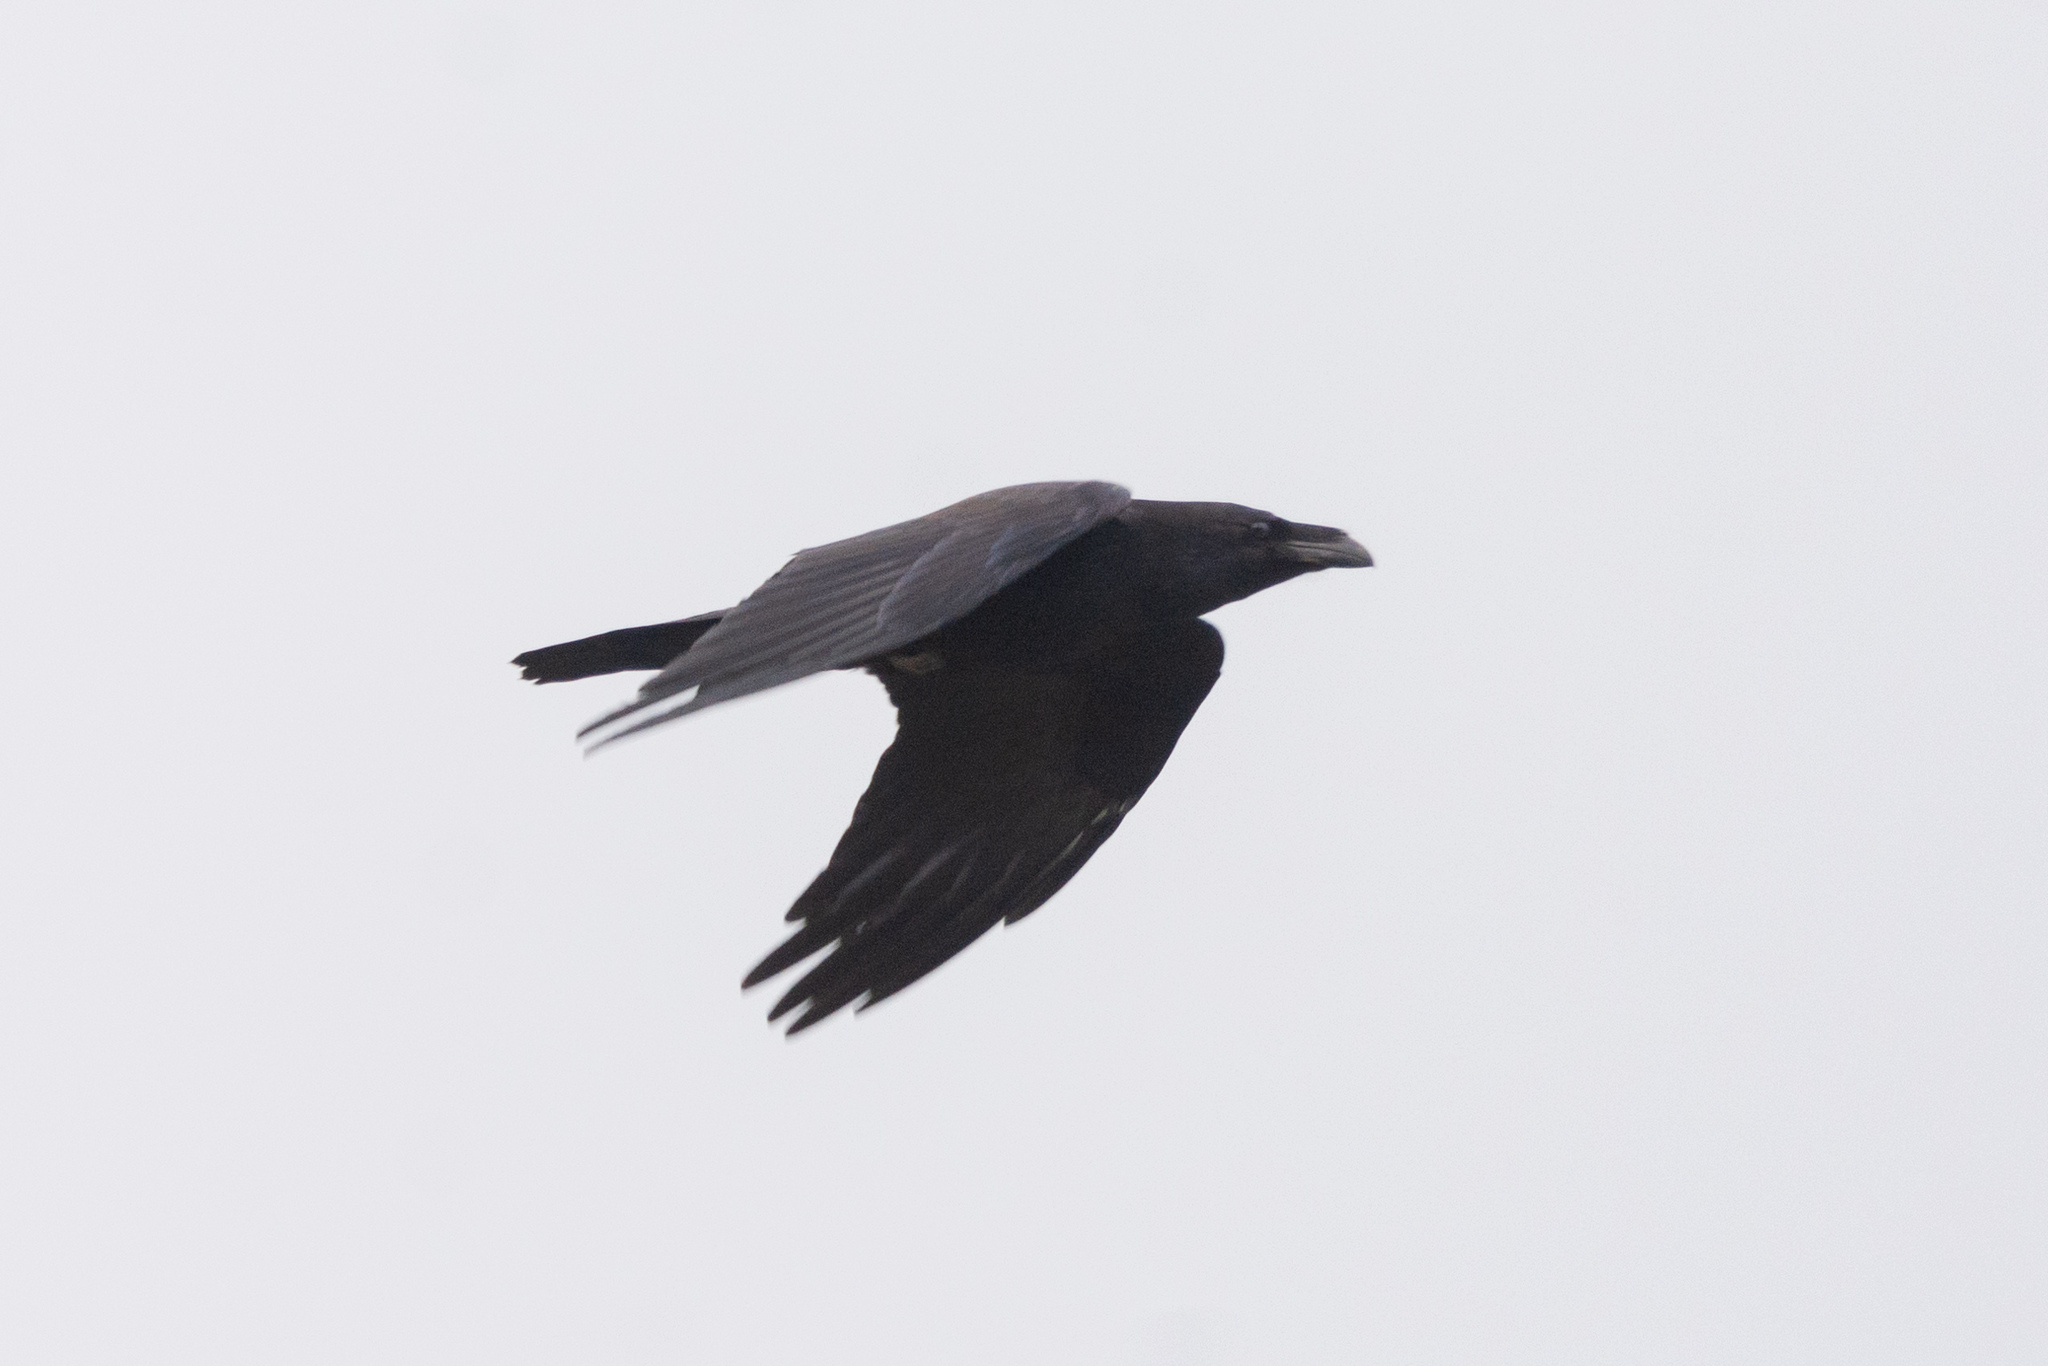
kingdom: Animalia
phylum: Chordata
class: Aves
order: Passeriformes
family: Corvidae
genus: Corvus
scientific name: Corvus corax
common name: Common raven
